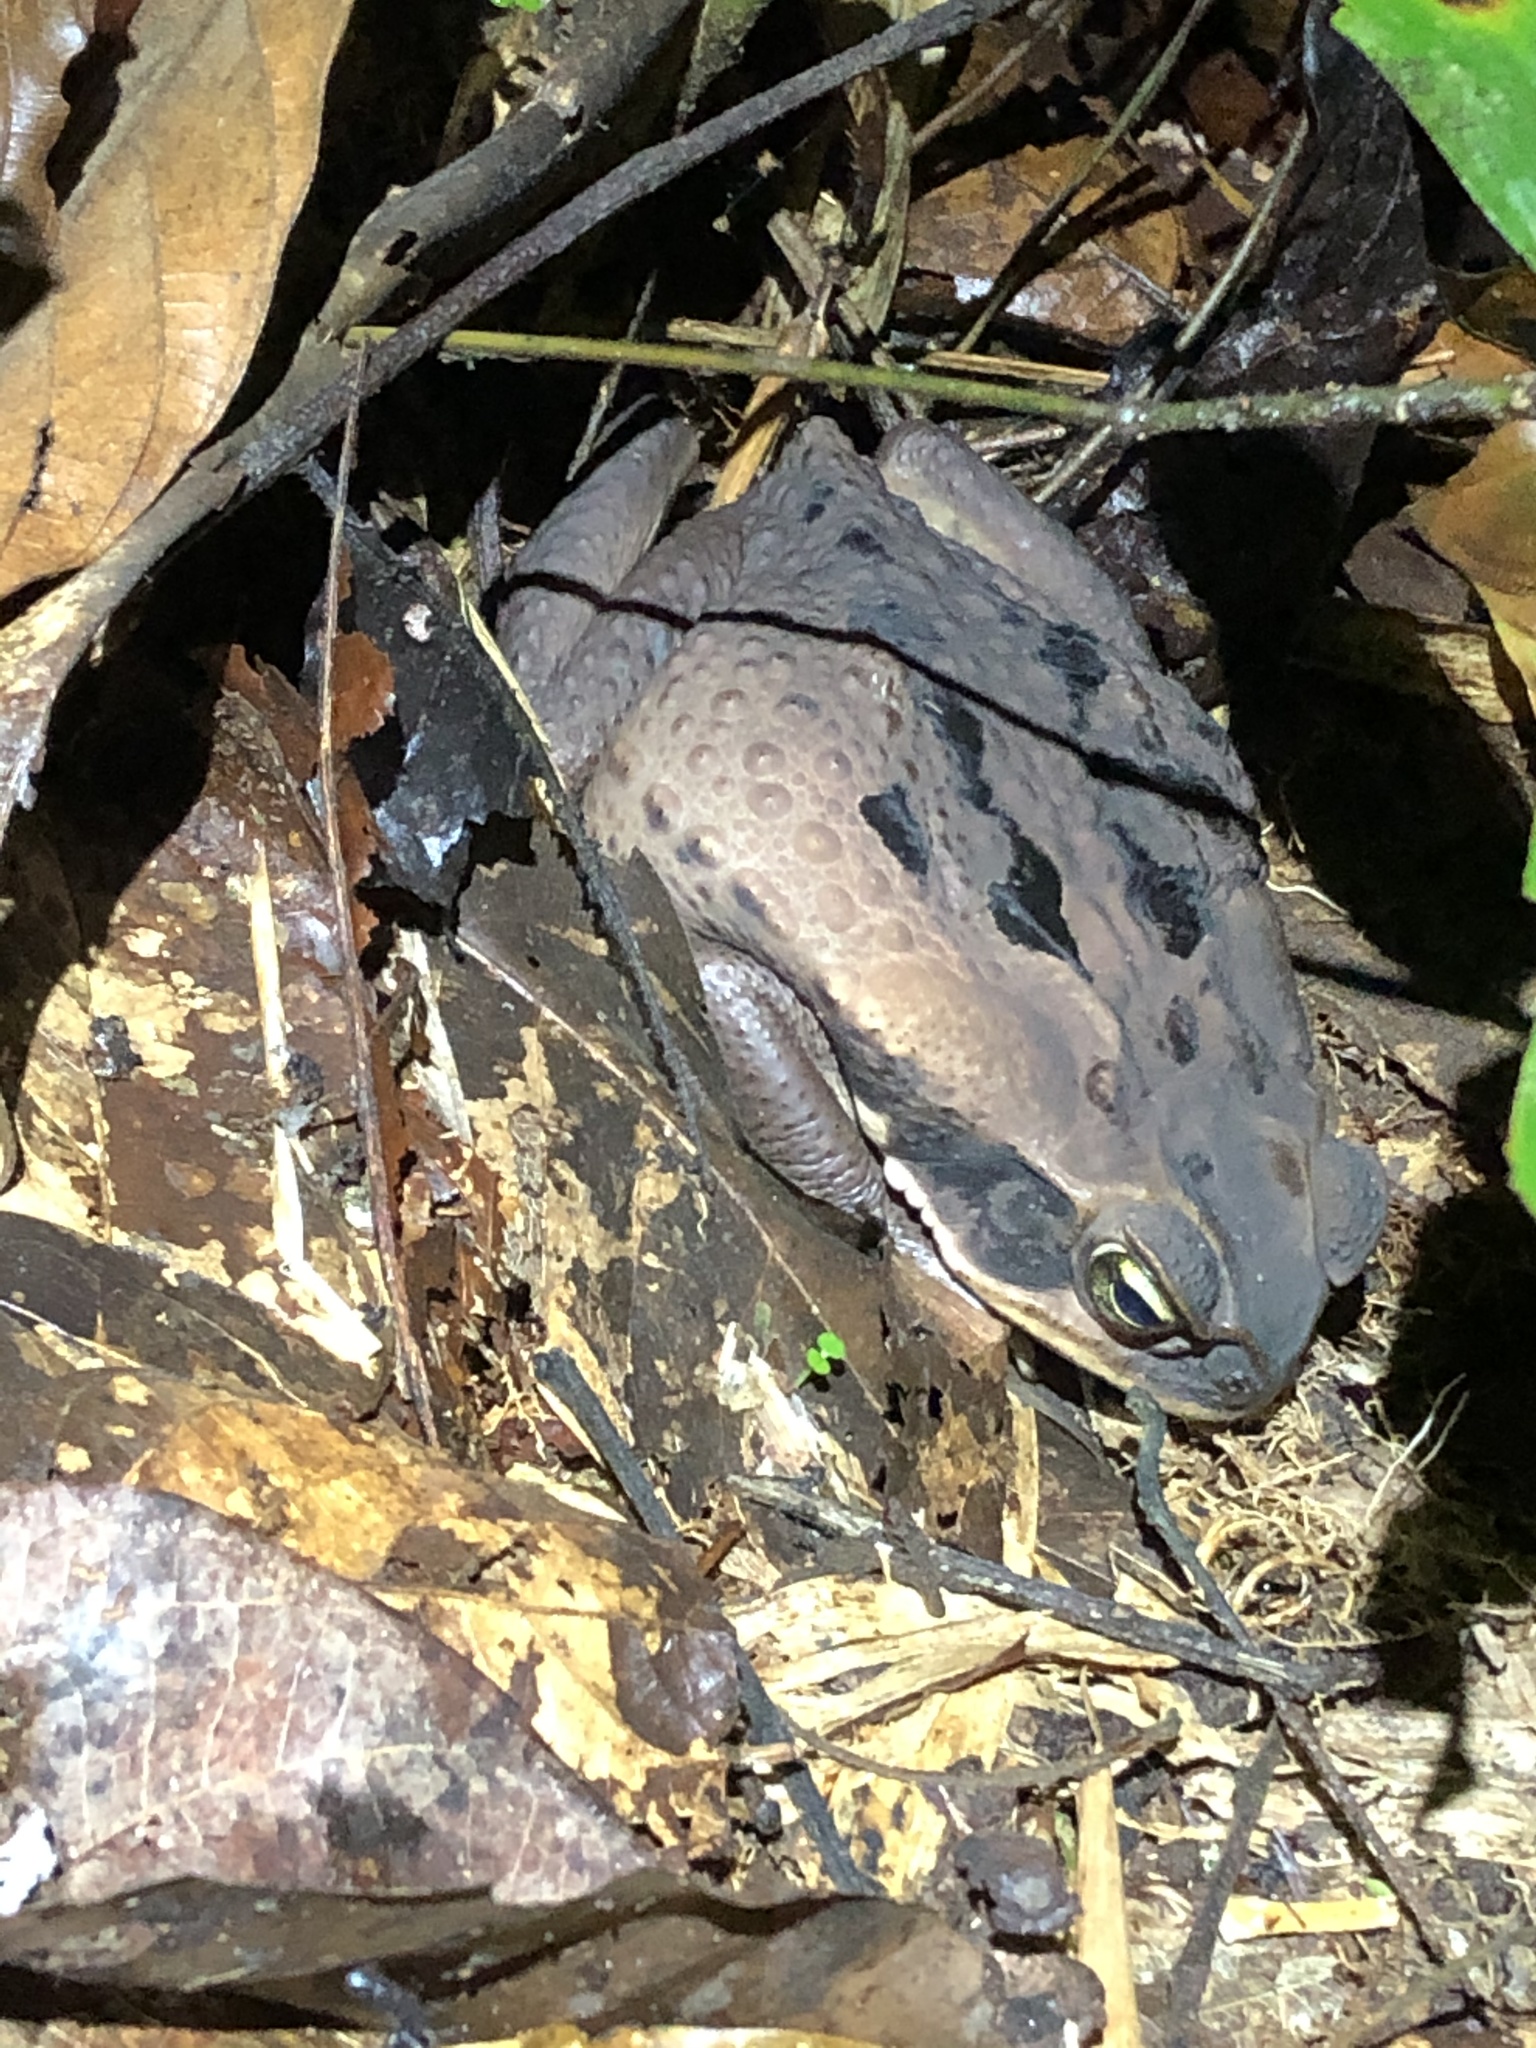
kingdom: Animalia
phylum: Chordata
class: Amphibia
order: Anura
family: Bufonidae
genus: Rhinella
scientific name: Rhinella marina
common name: Cane toad
